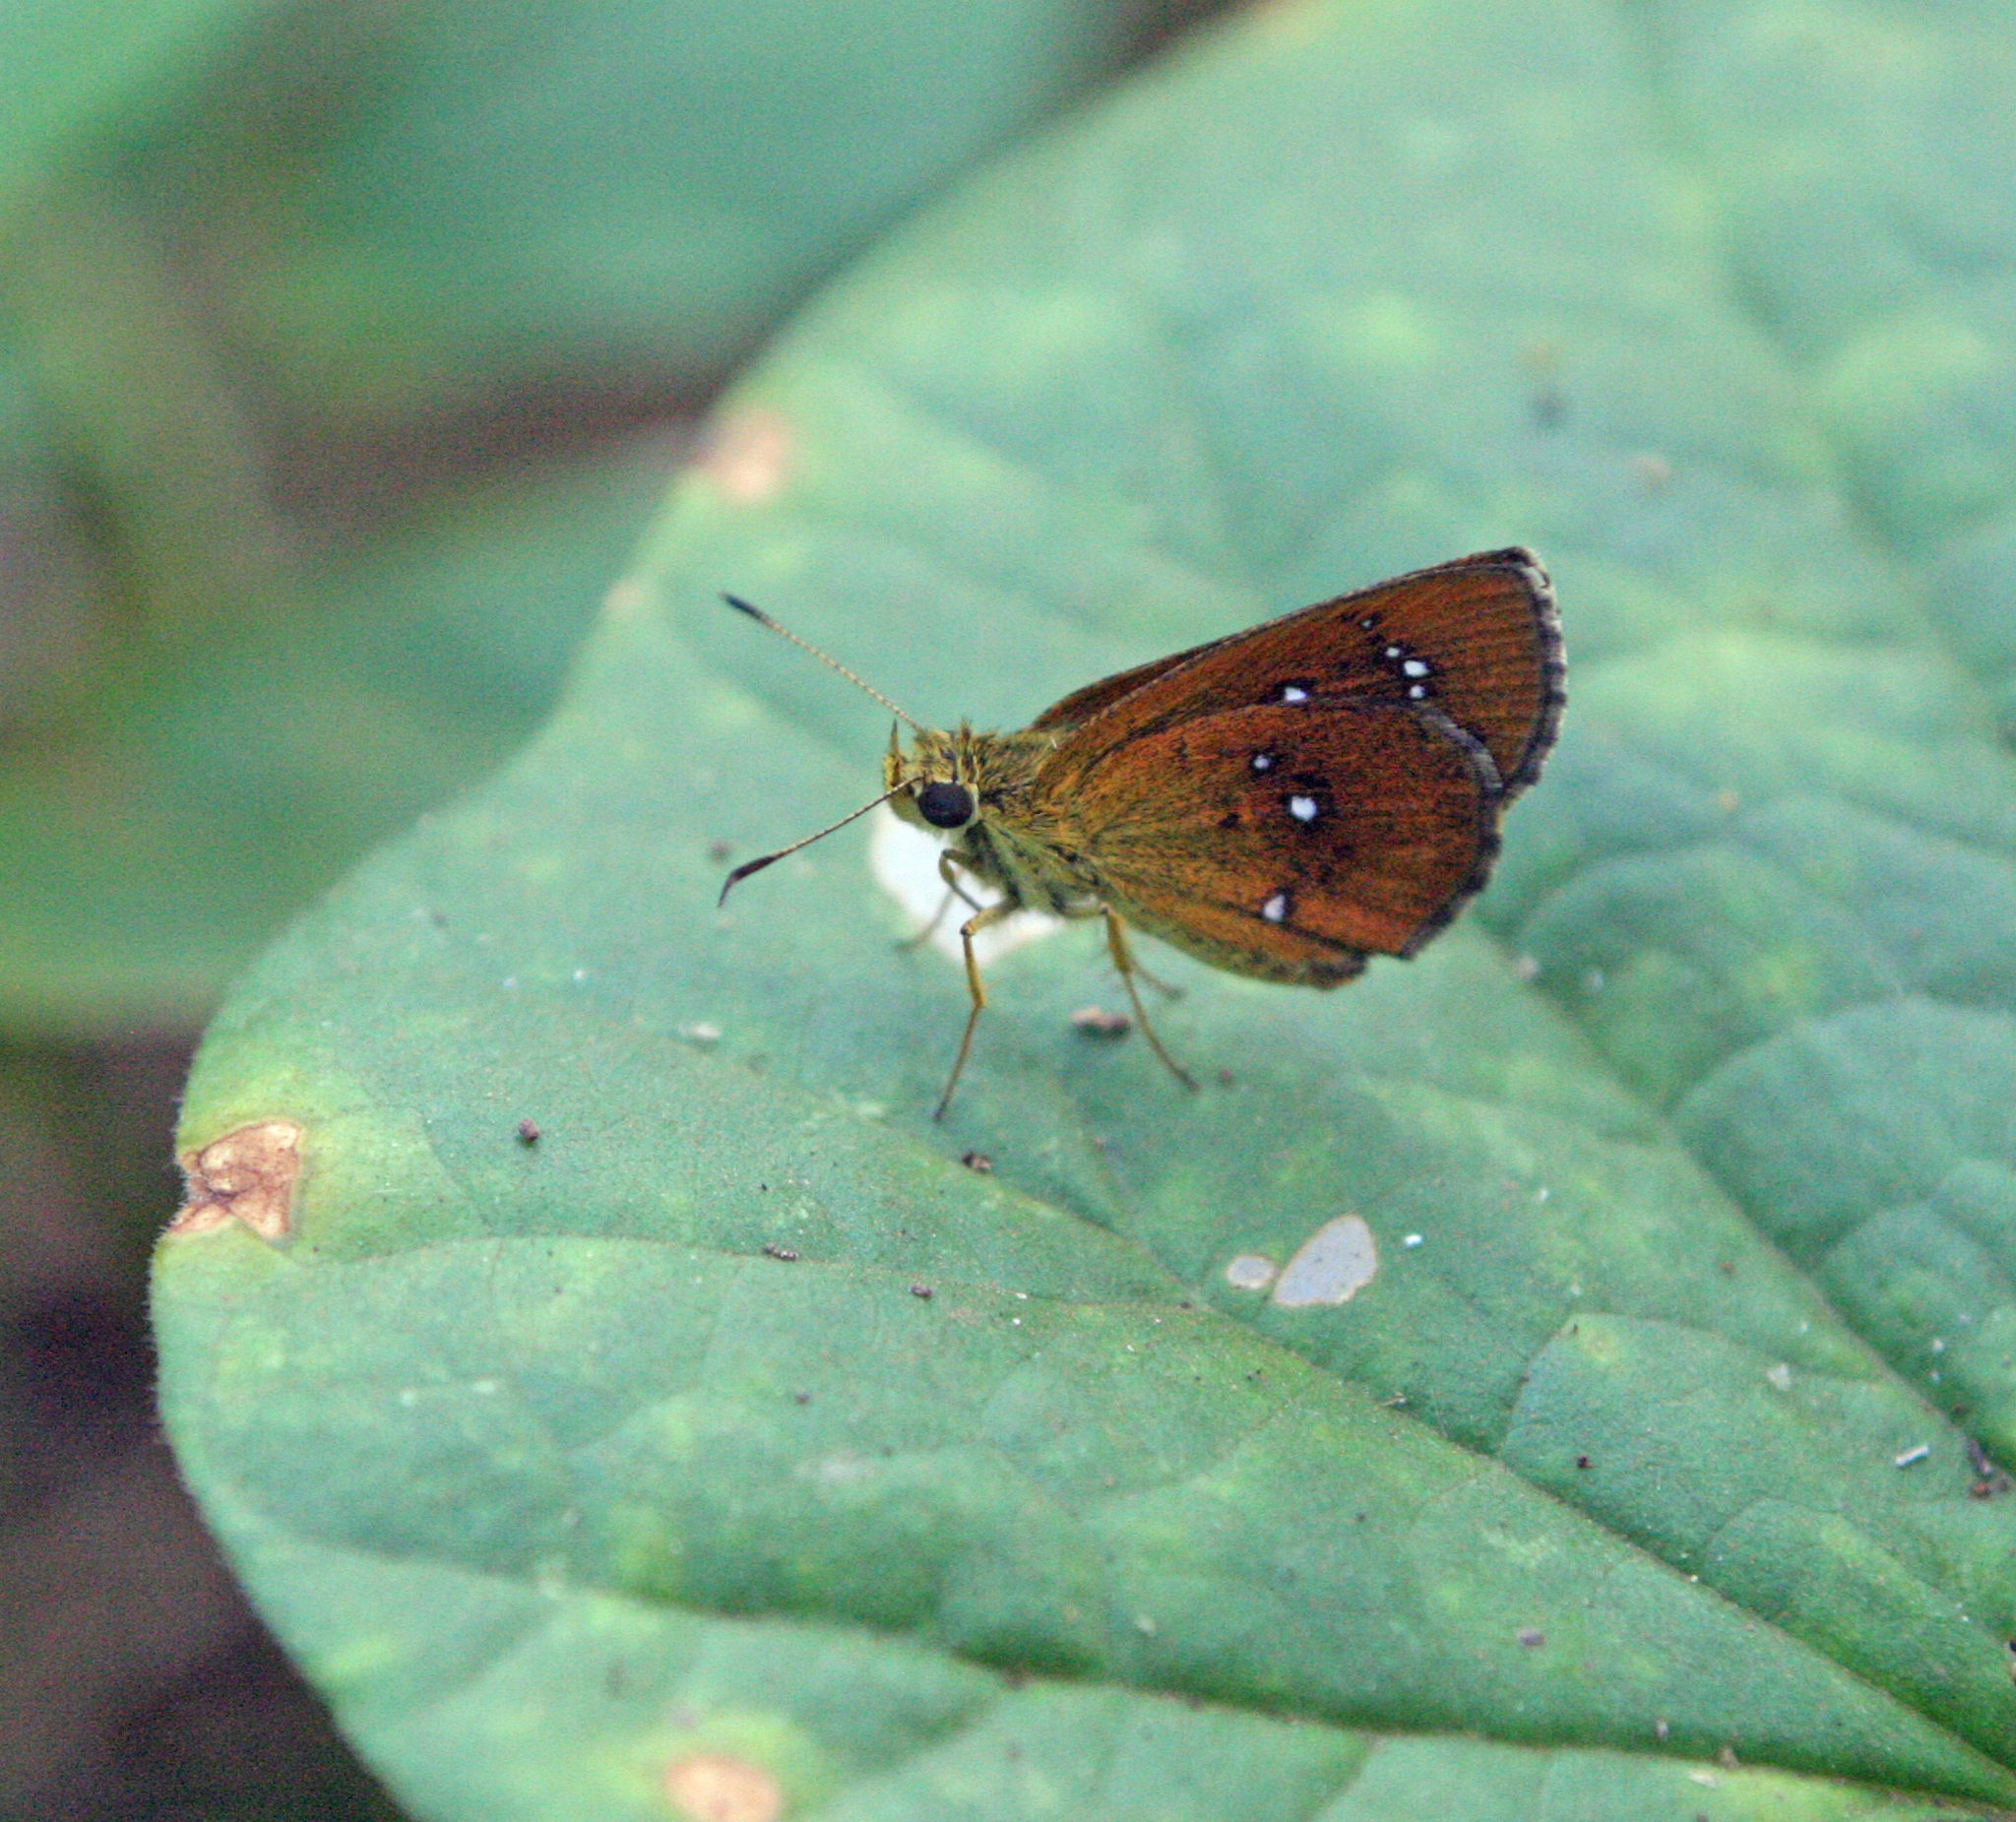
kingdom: Animalia
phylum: Arthropoda
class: Insecta
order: Lepidoptera
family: Hesperiidae
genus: Iambrix
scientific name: Iambrix salsala
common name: Chestnut bob
